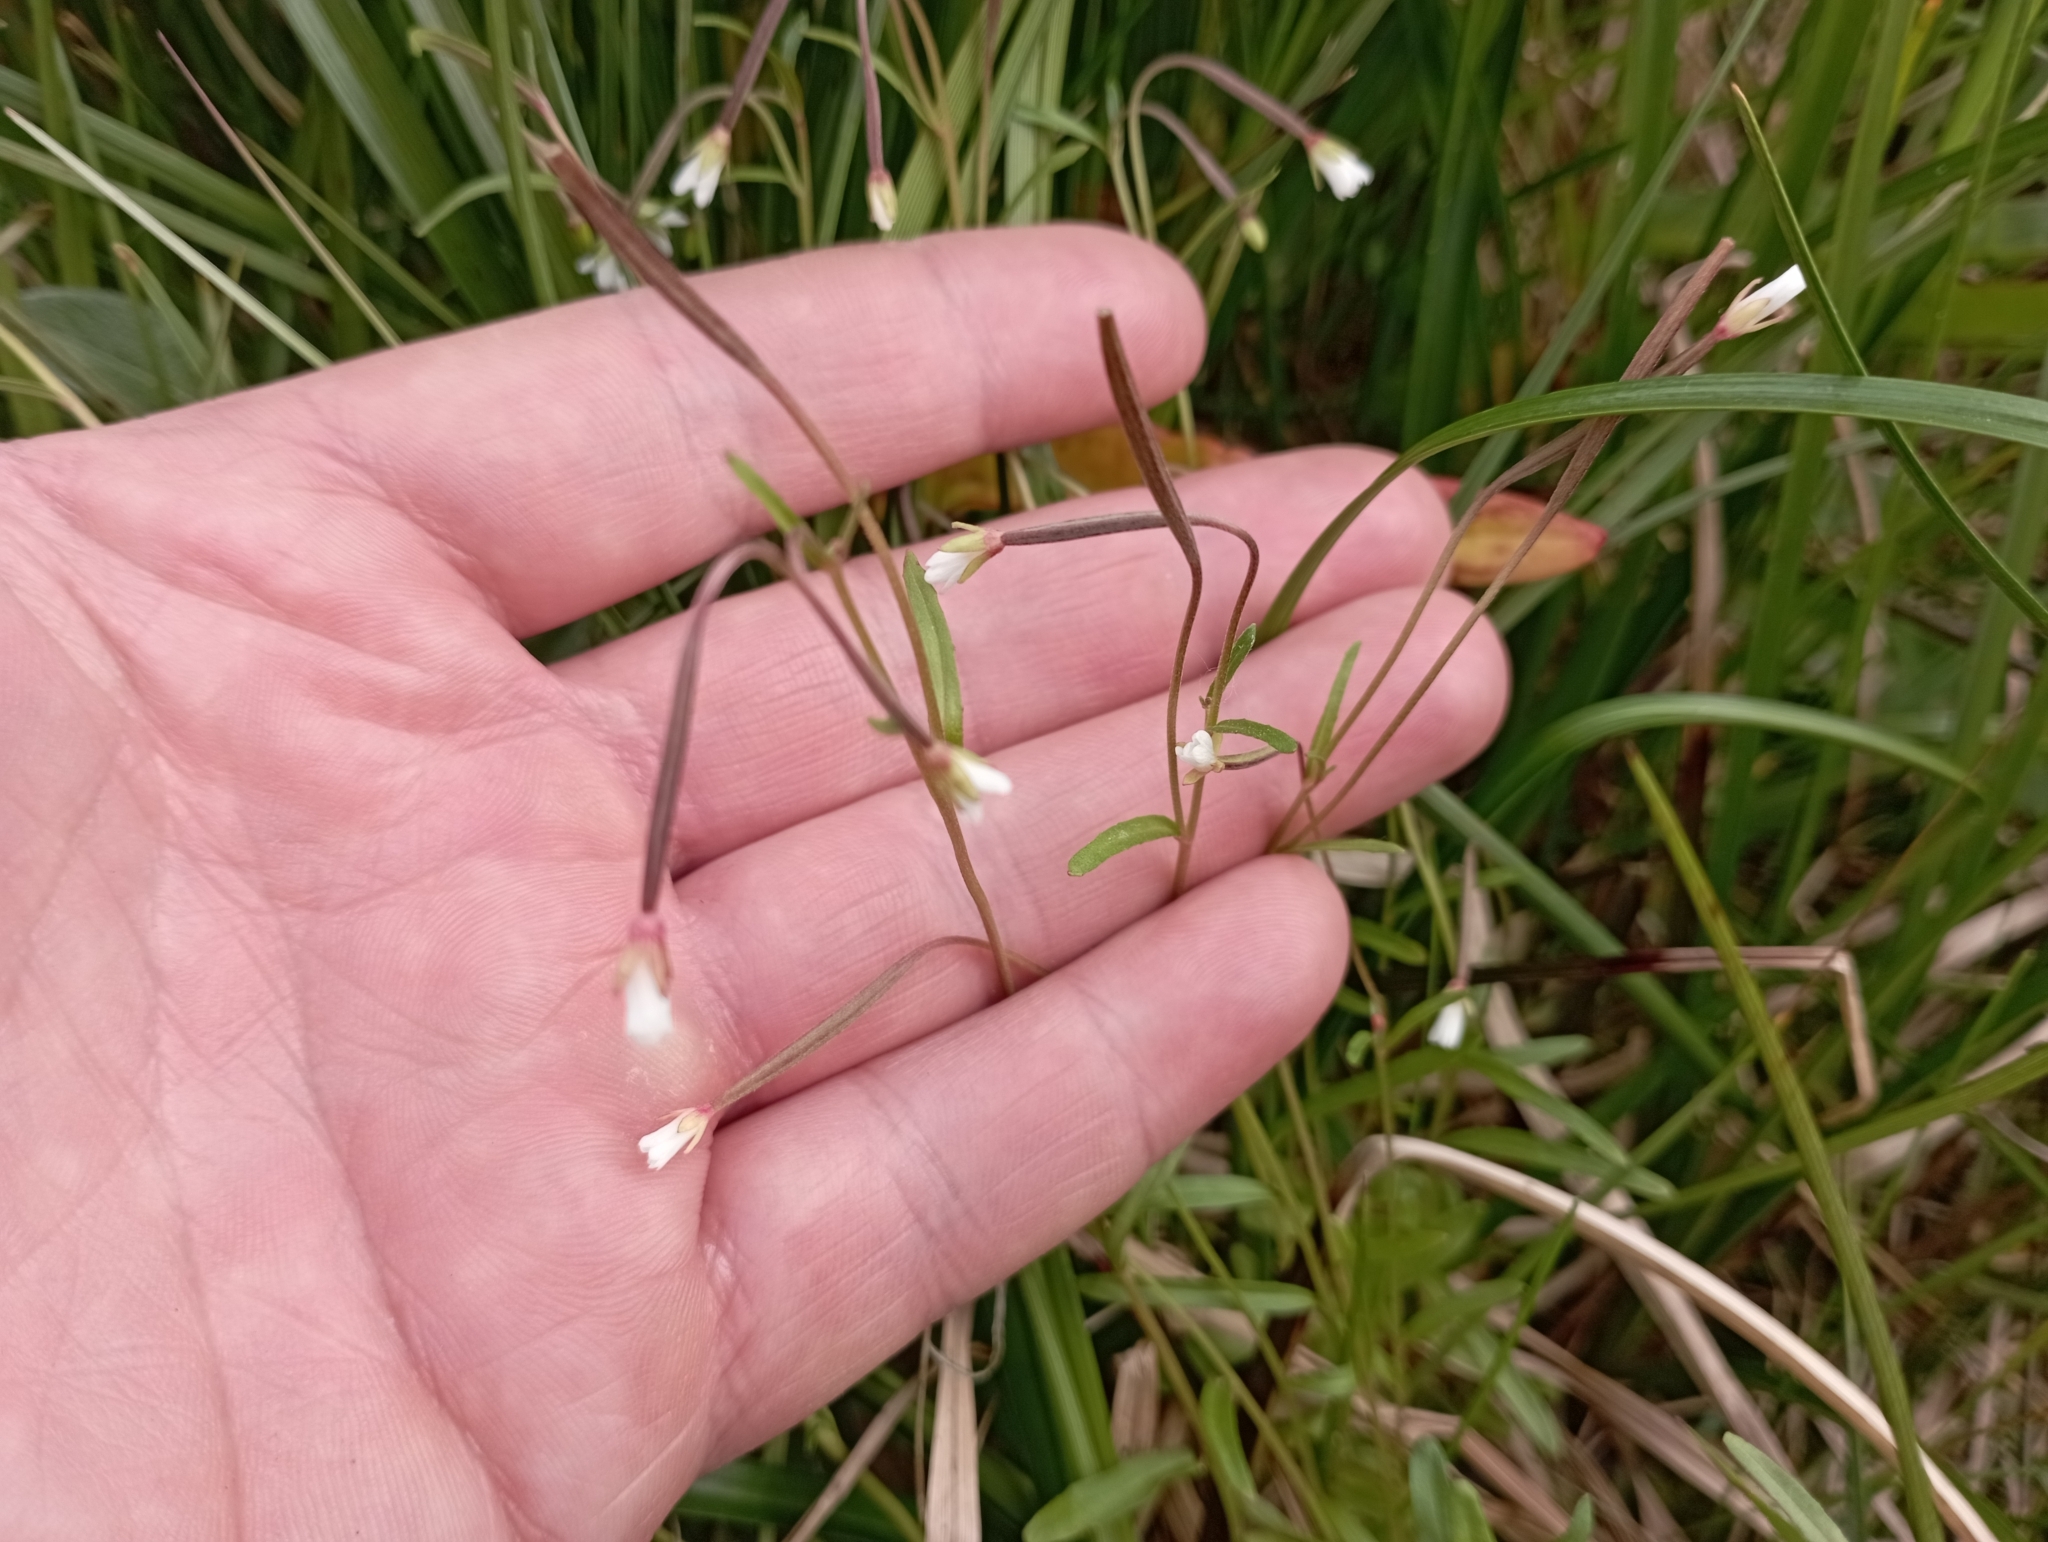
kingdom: Plantae
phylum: Tracheophyta
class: Magnoliopsida
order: Myrtales
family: Onagraceae
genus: Epilobium
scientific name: Epilobium palustre
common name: Marsh willowherb
